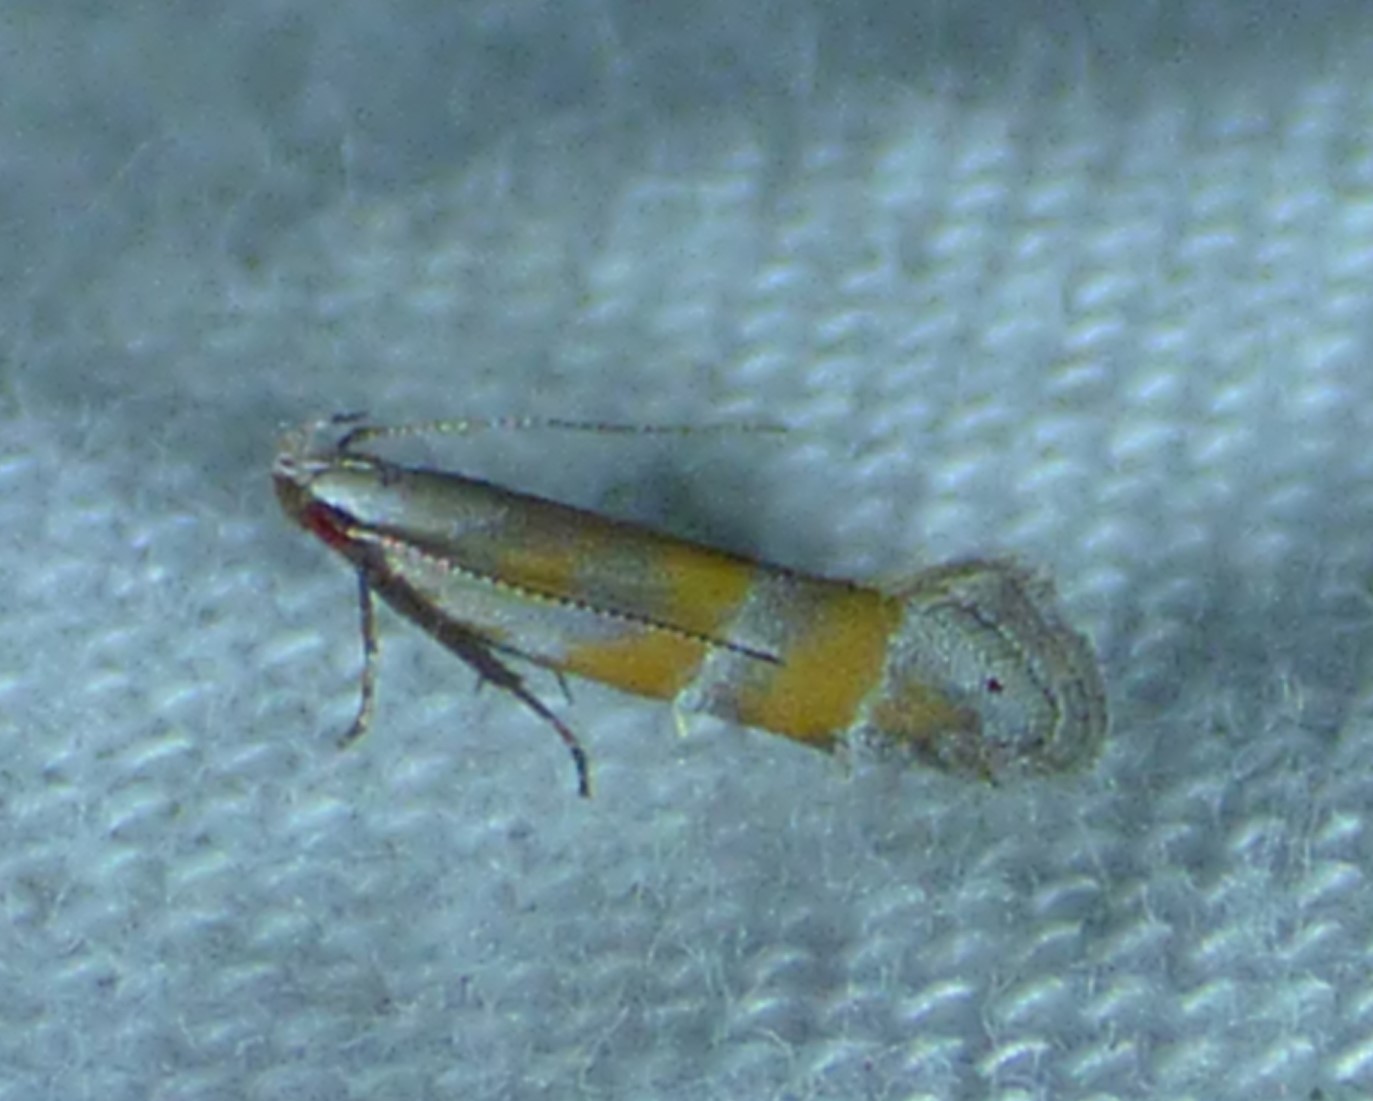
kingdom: Animalia
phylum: Arthropoda
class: Insecta
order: Lepidoptera
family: Gelechiidae
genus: Battaristis
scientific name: Battaristis vittella
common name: Orange stripe-backed moth
